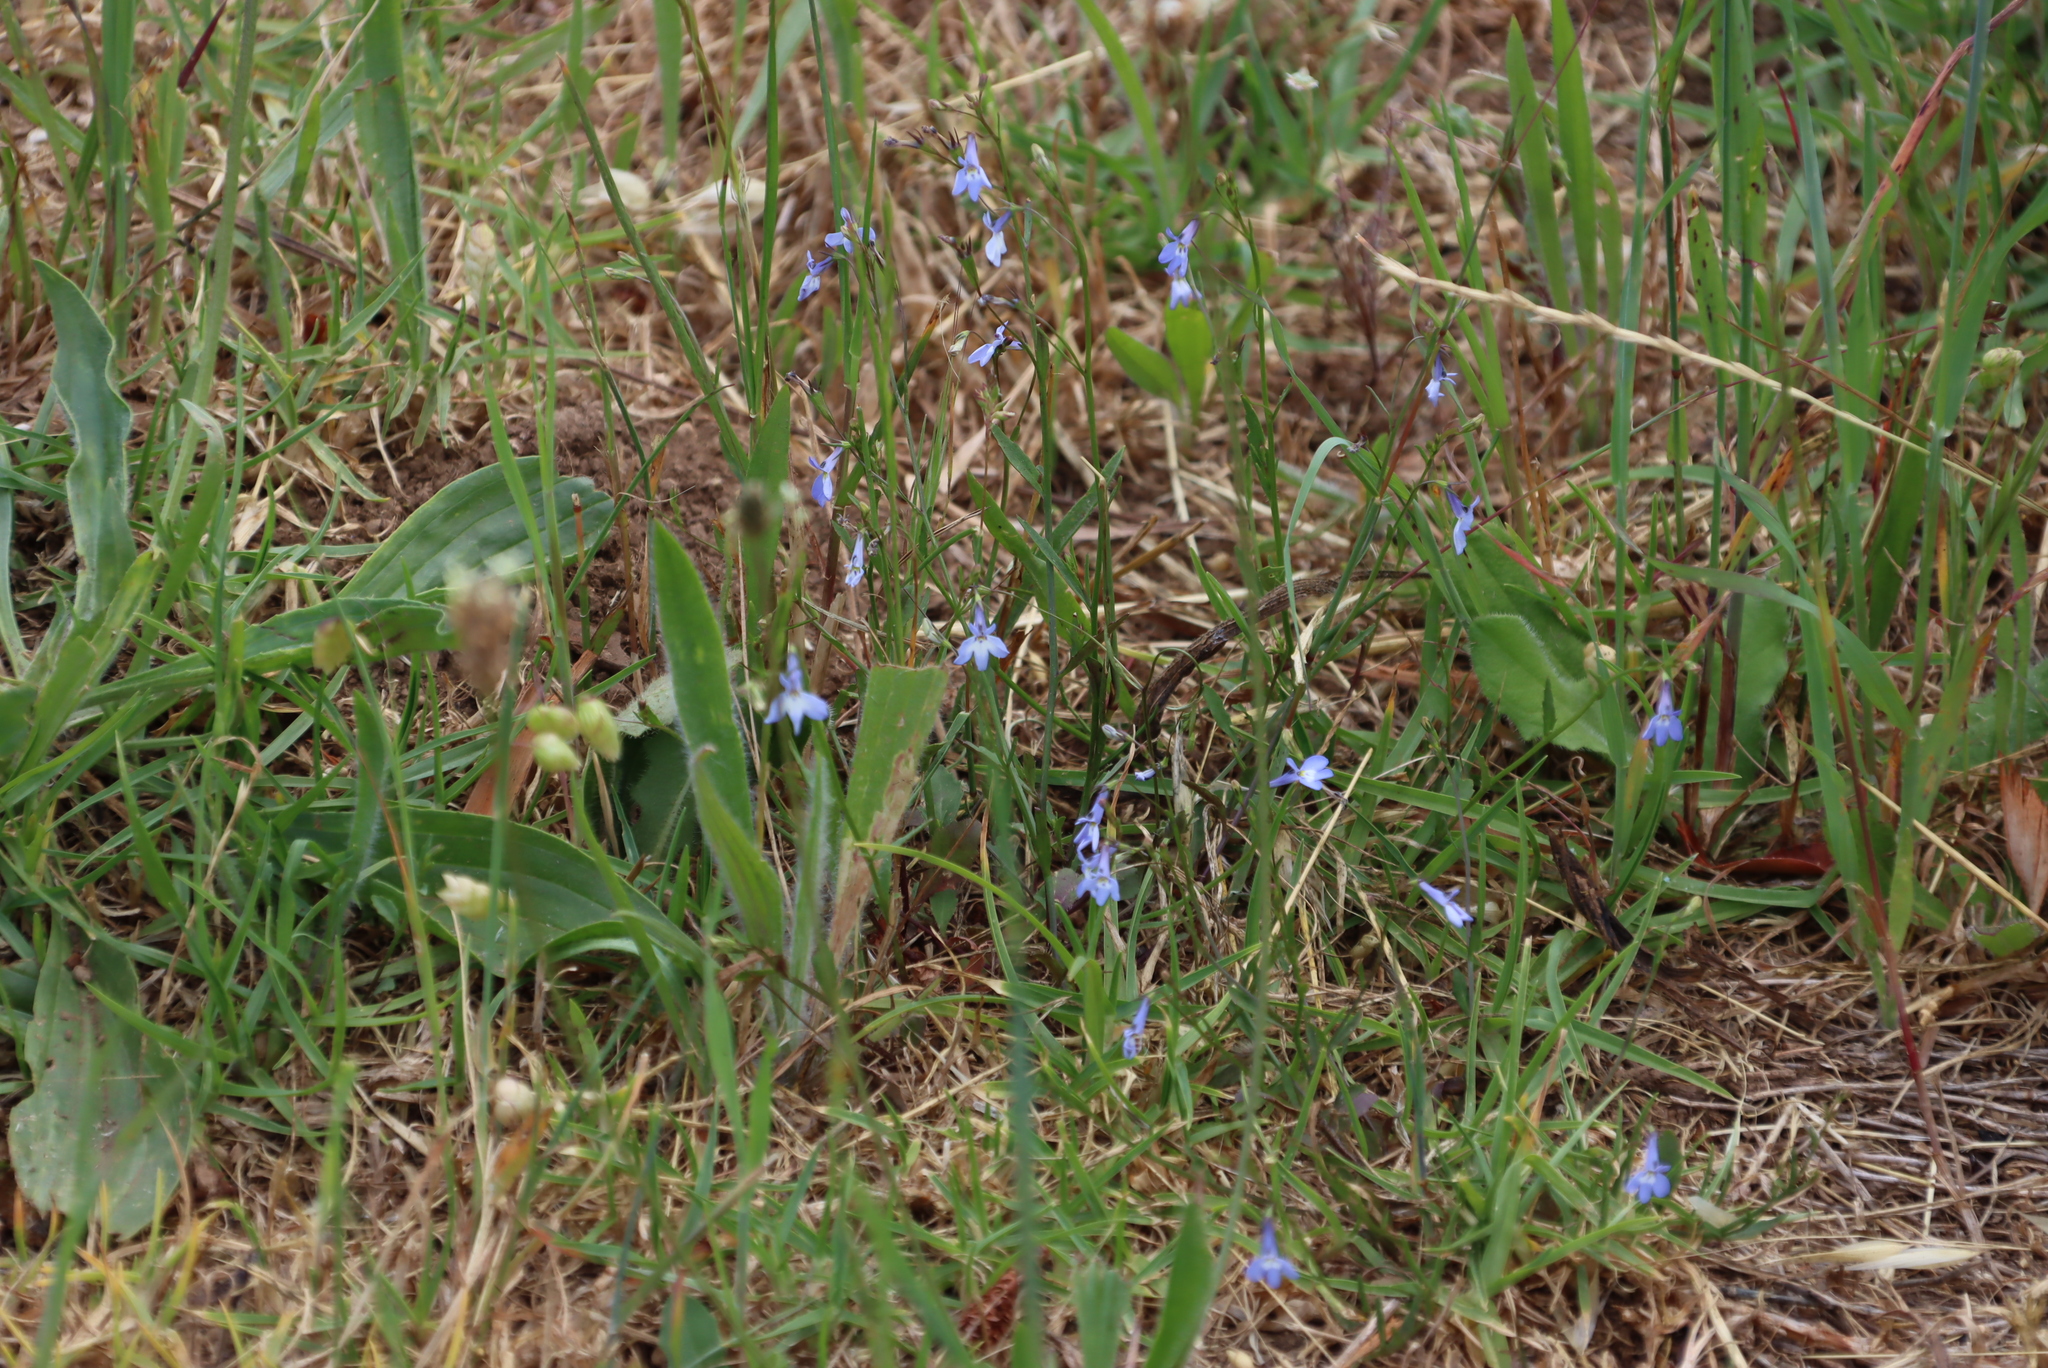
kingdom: Plantae
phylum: Tracheophyta
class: Magnoliopsida
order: Asterales
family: Campanulaceae
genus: Lobelia
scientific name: Lobelia erinus
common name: Edging lobelia
